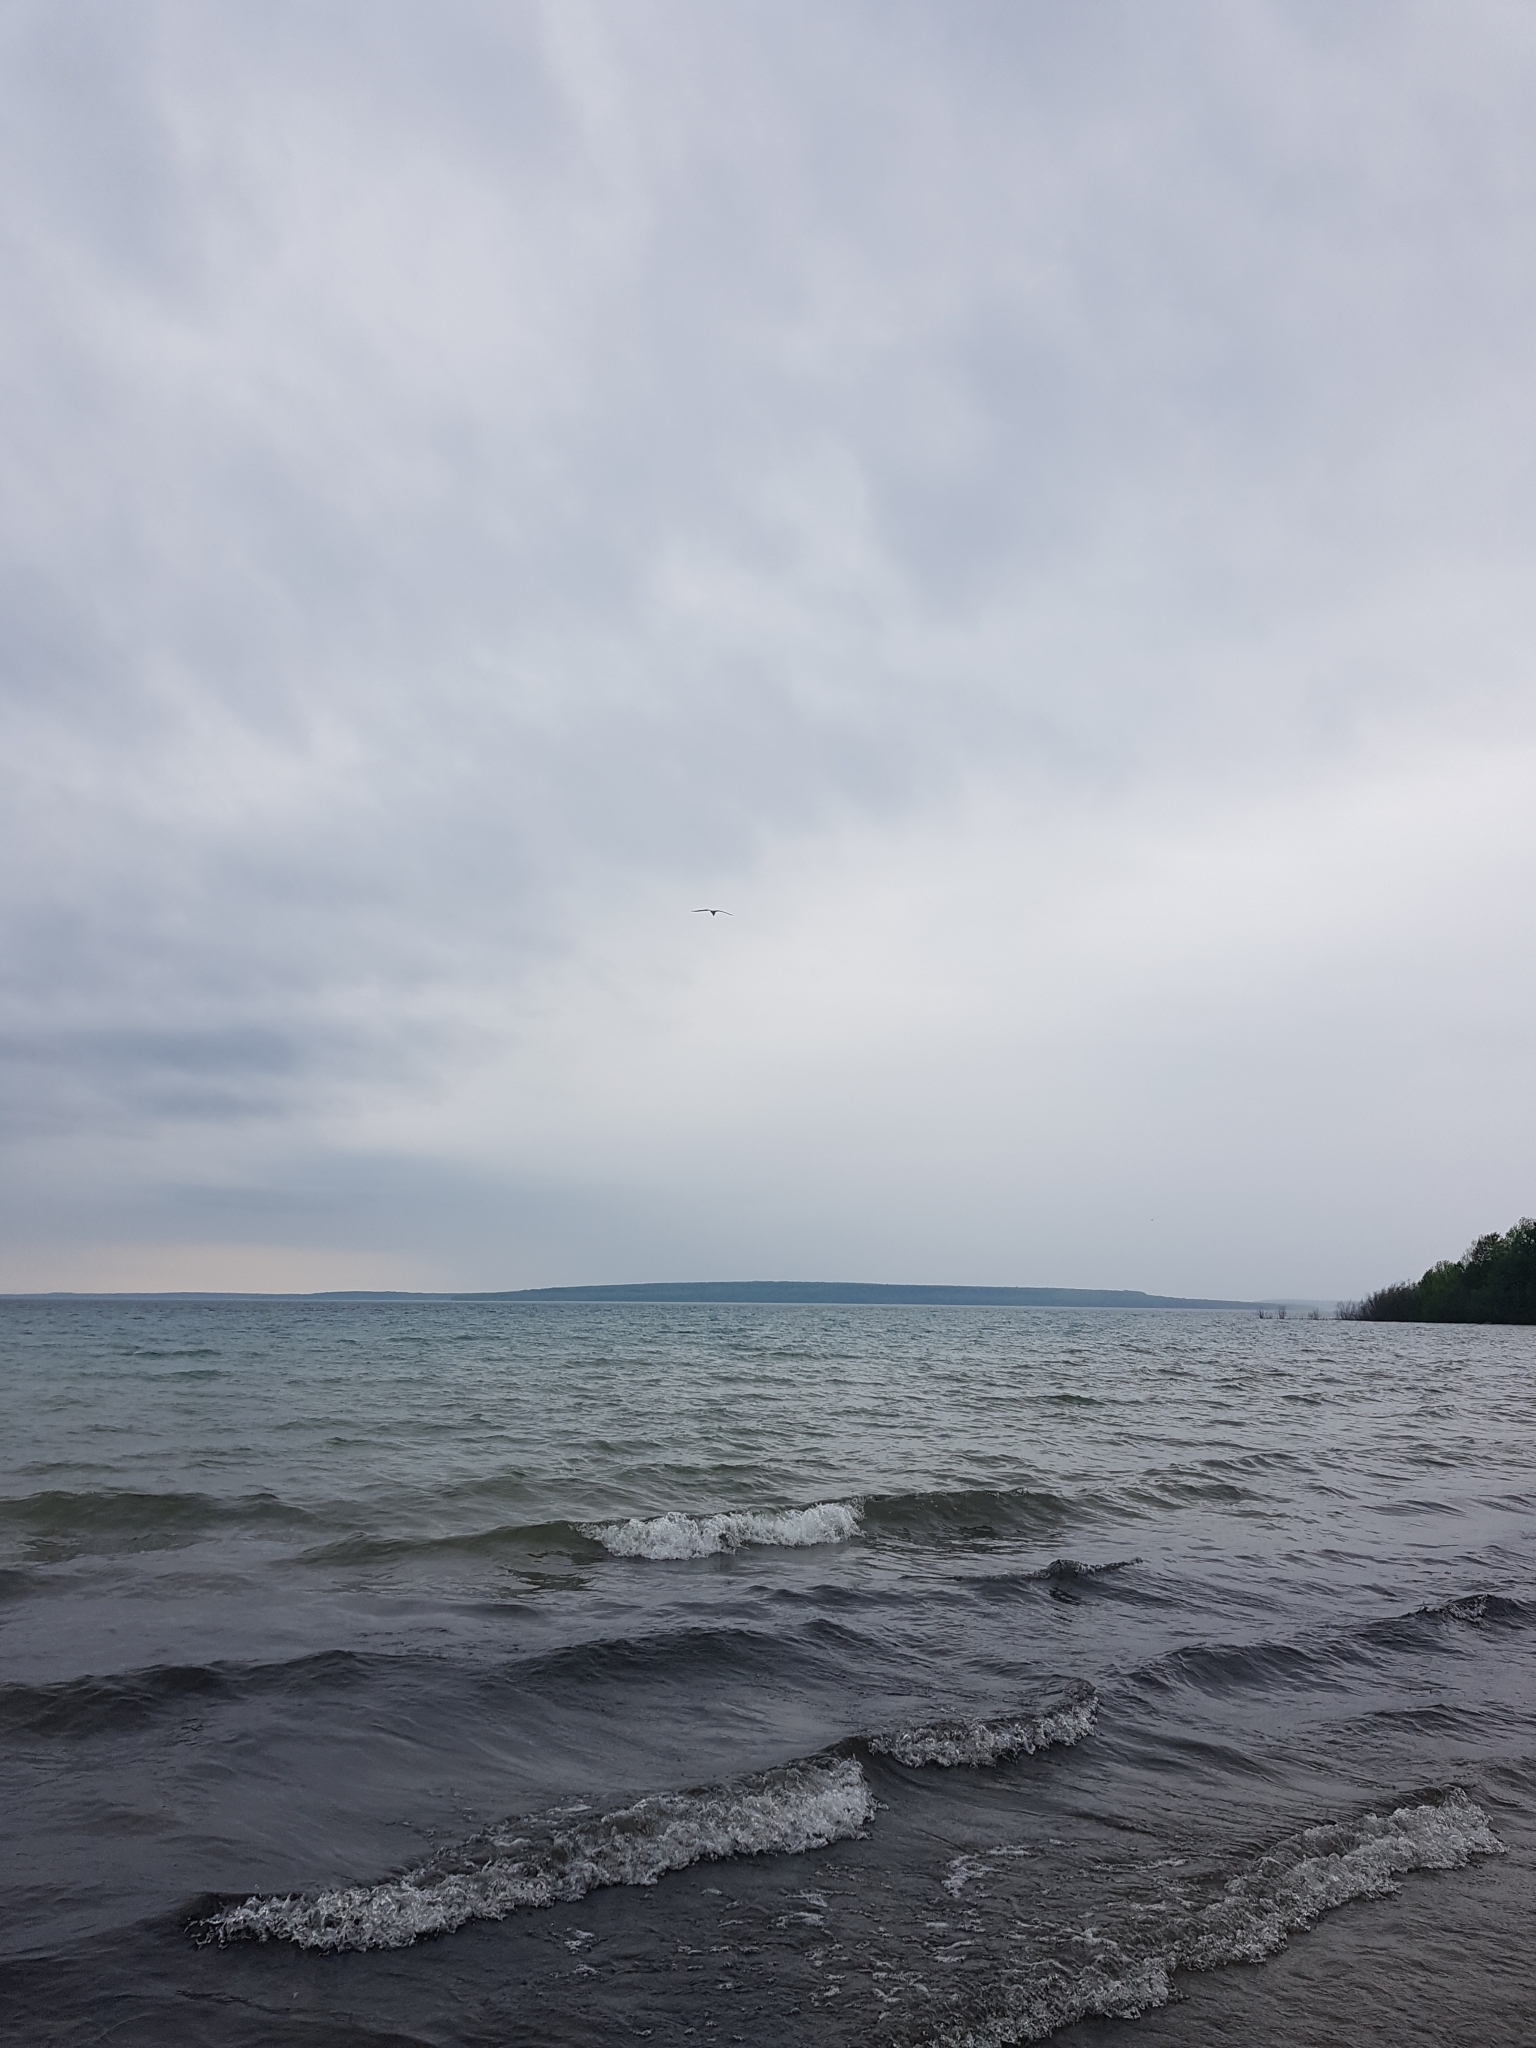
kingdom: Animalia
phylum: Chordata
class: Aves
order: Charadriiformes
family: Laridae
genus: Hydroprogne
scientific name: Hydroprogne caspia
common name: Caspian tern
